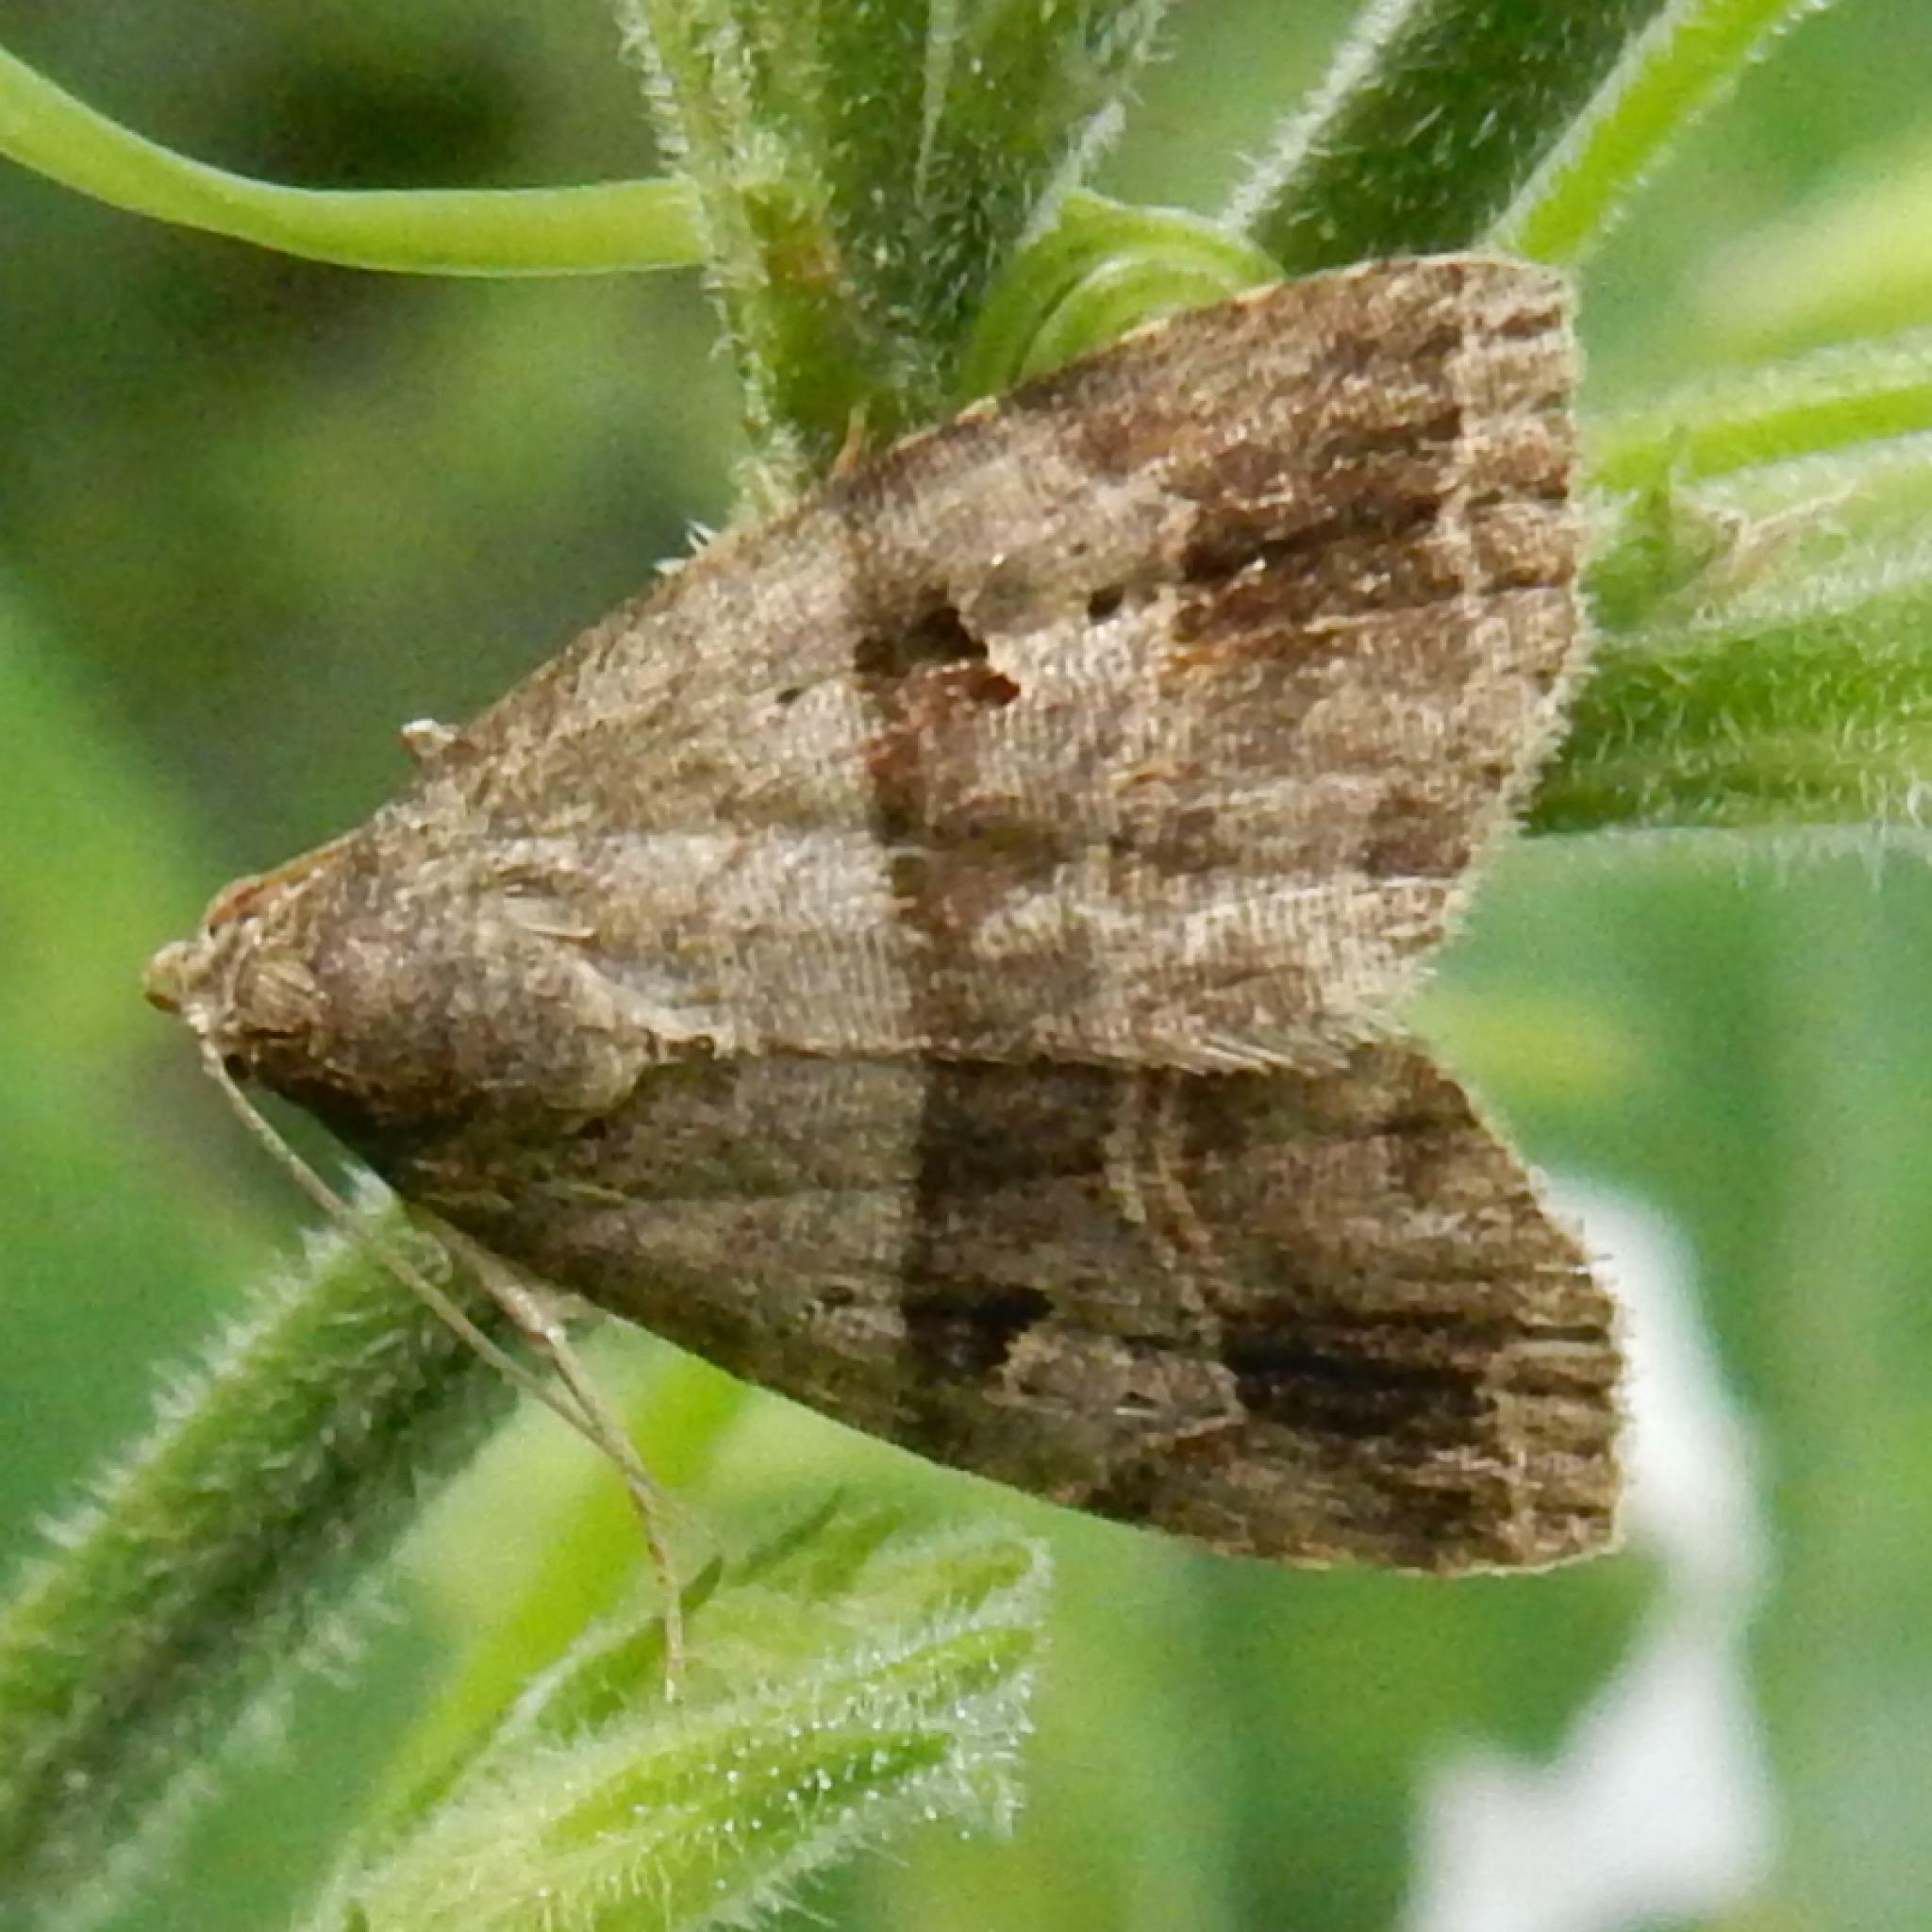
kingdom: Animalia
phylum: Arthropoda
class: Insecta
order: Lepidoptera
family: Noctuidae
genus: Ozarba
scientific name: Ozarba corniculans
